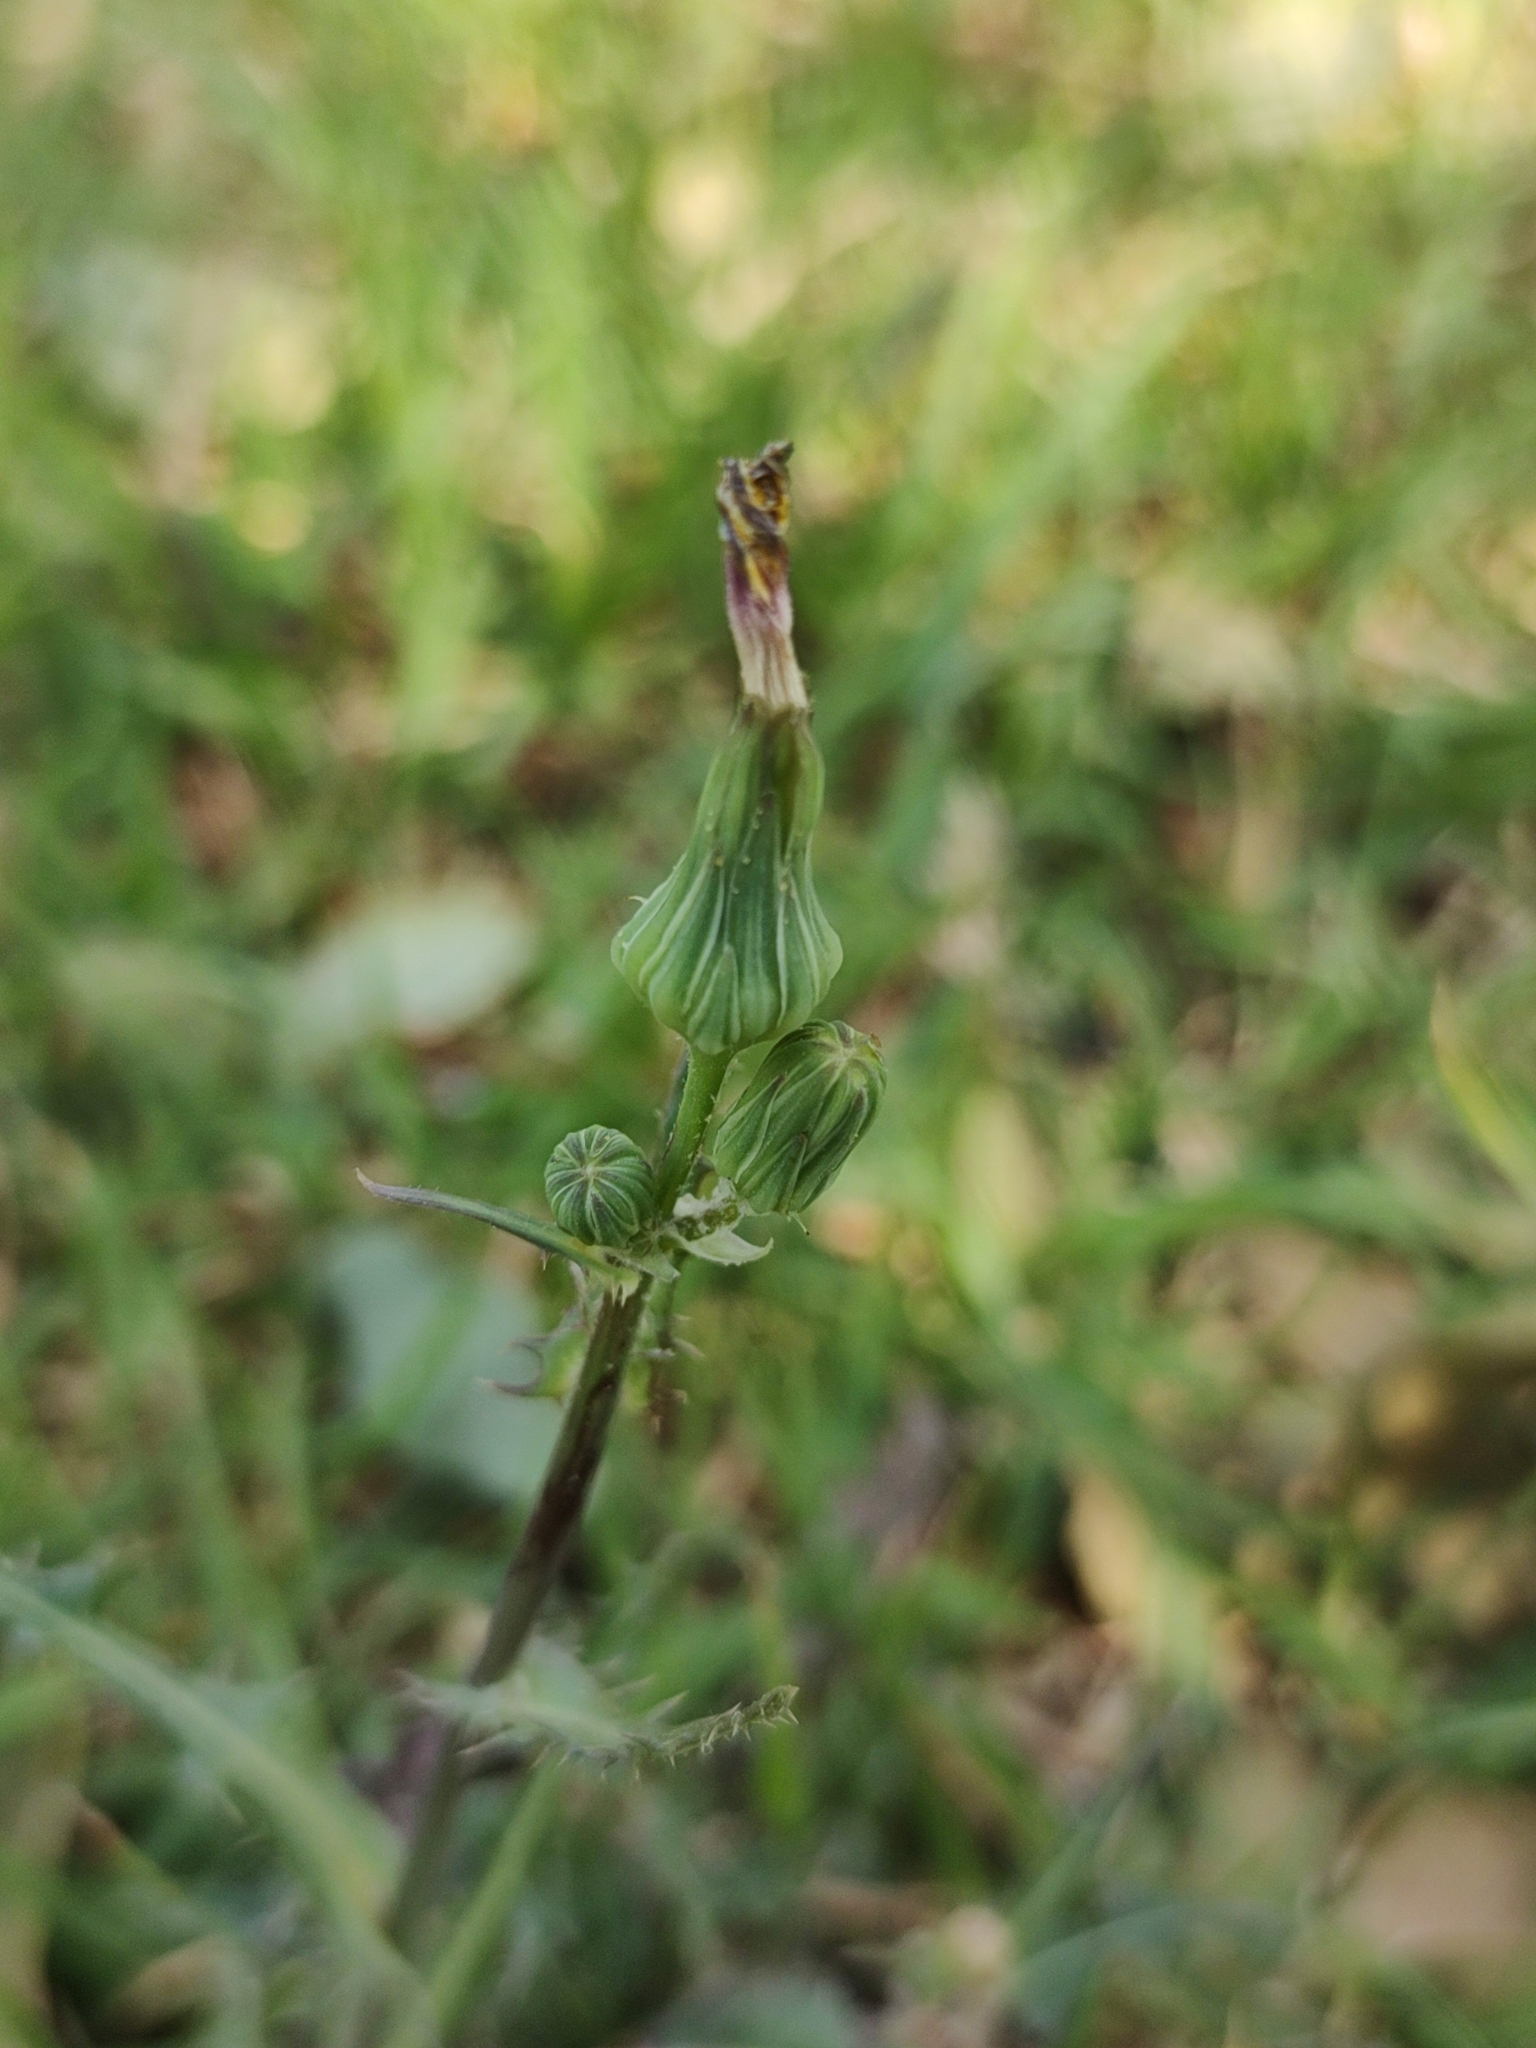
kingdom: Plantae
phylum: Tracheophyta
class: Magnoliopsida
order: Asterales
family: Asteraceae
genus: Sonchus
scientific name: Sonchus oleraceus
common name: Common sowthistle
